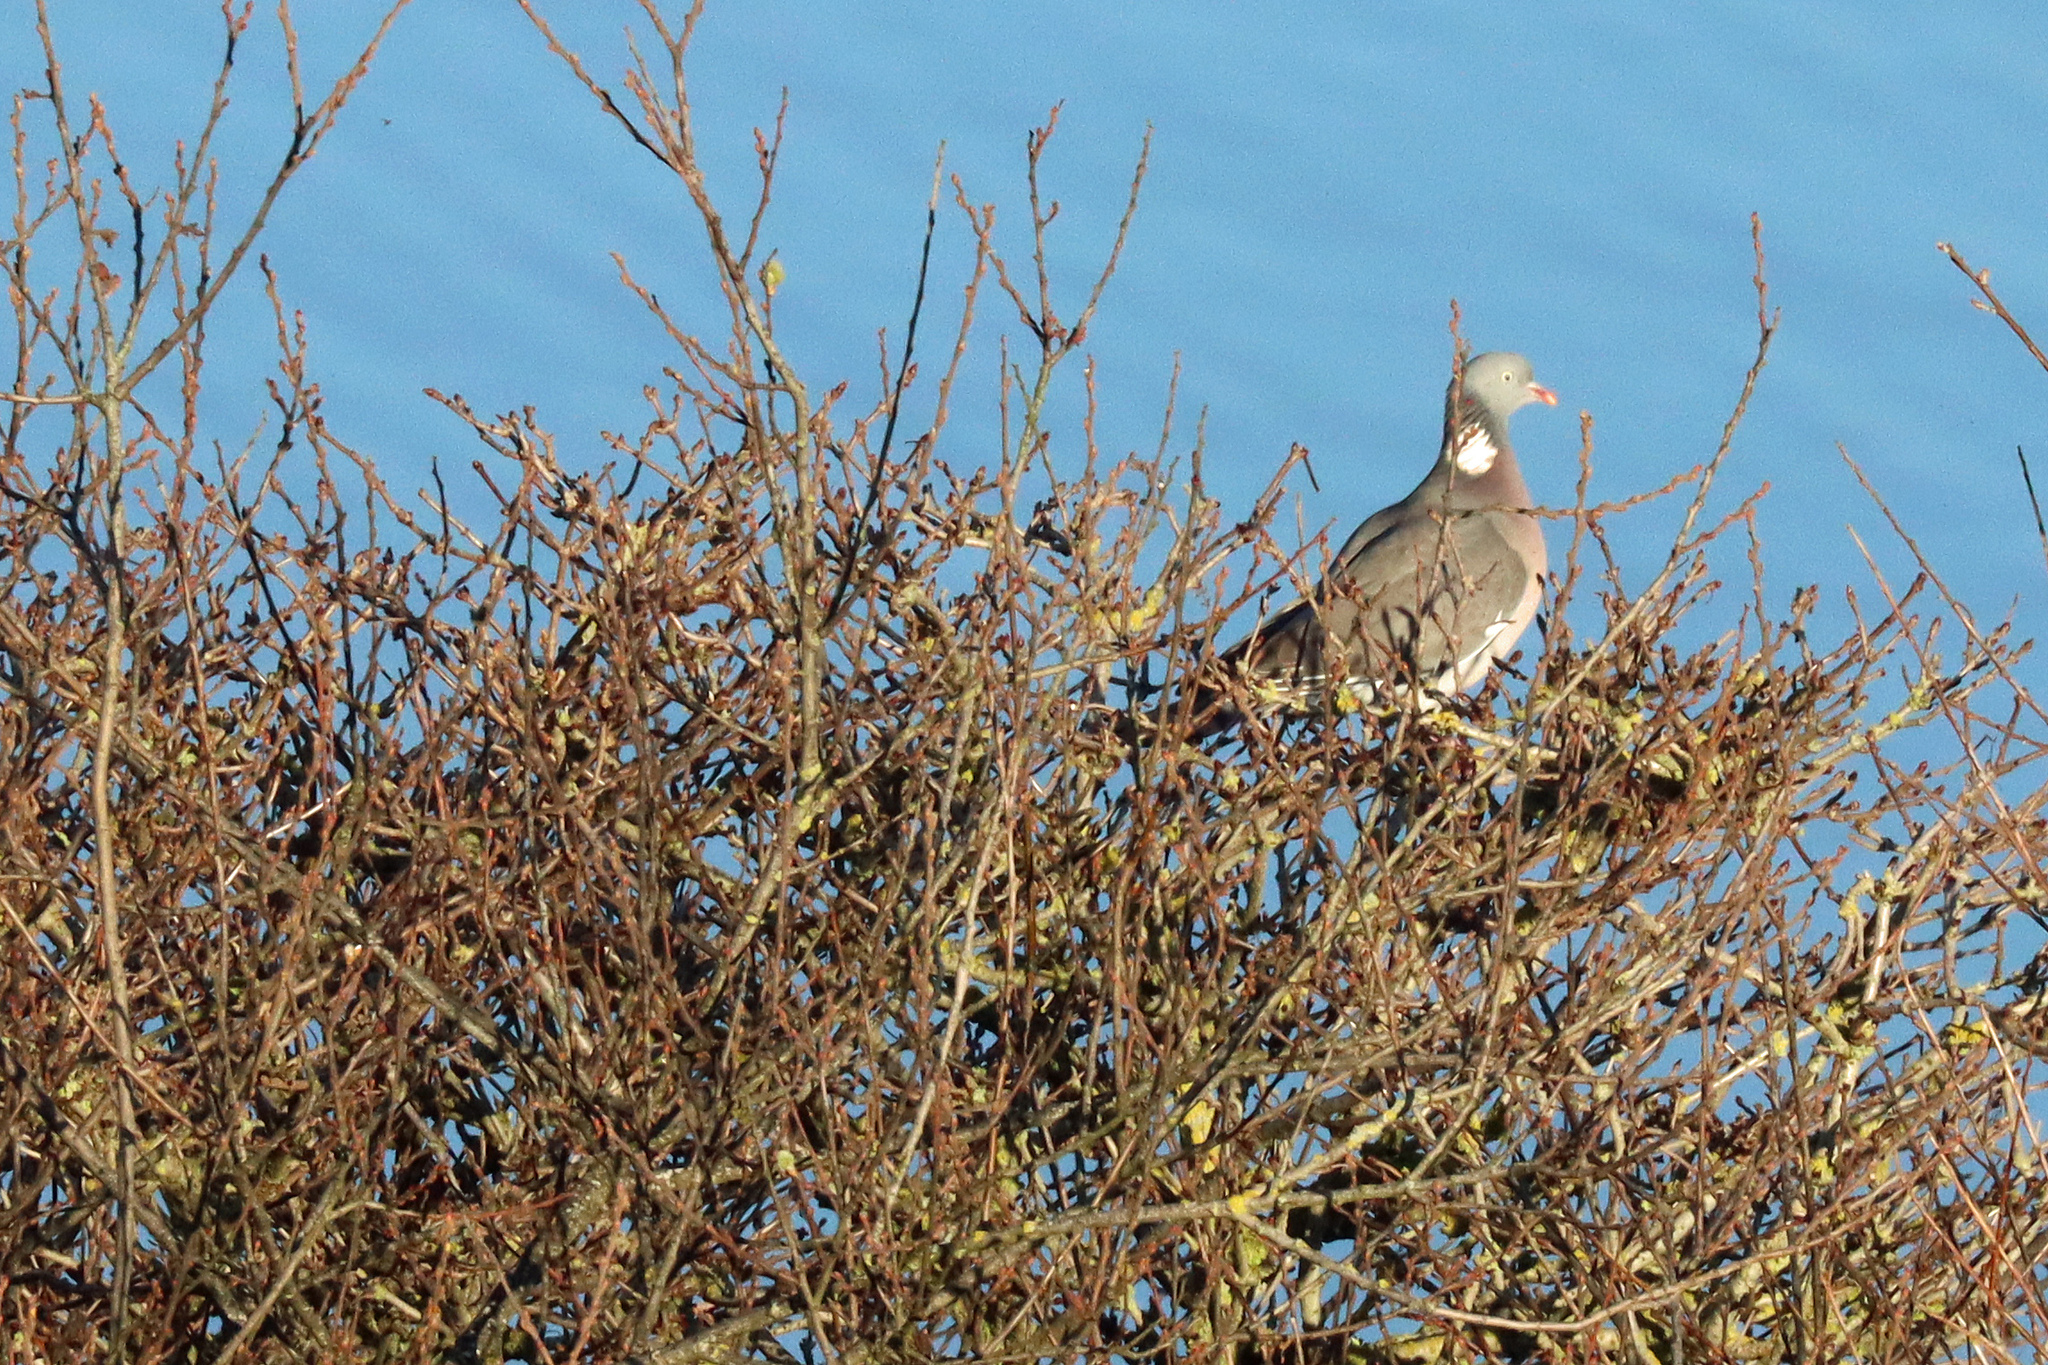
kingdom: Animalia
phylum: Chordata
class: Aves
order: Columbiformes
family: Columbidae
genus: Columba
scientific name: Columba palumbus
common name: Common wood pigeon
